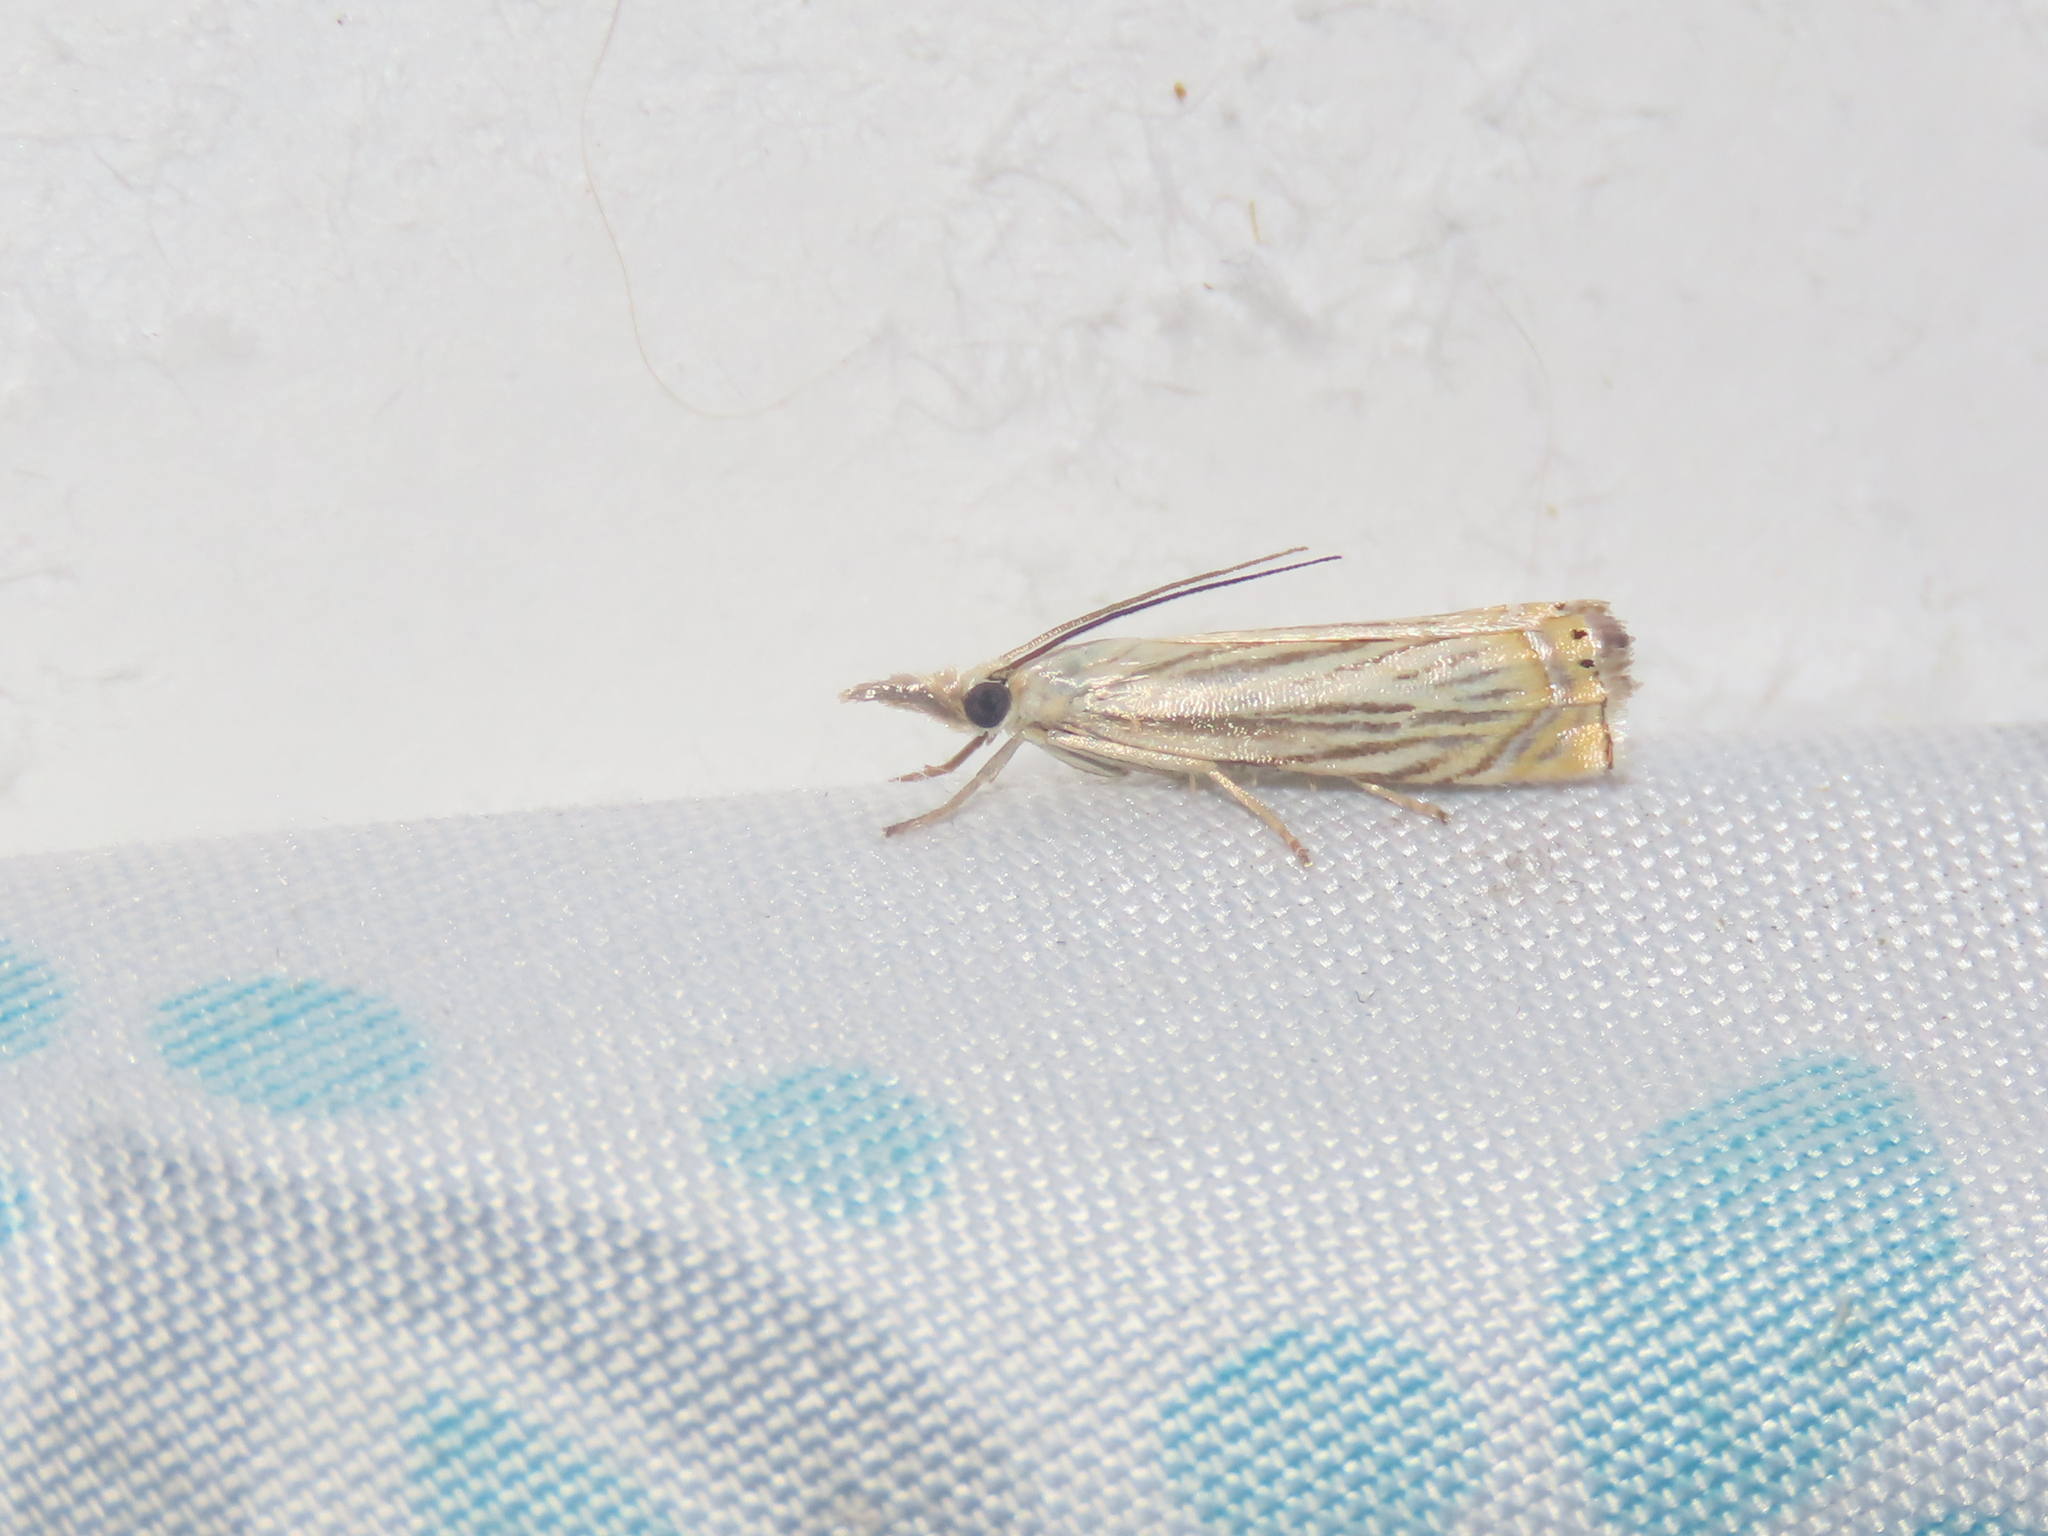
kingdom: Animalia
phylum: Arthropoda
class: Insecta
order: Lepidoptera
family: Crambidae
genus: Chrysoteuchia
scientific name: Chrysoteuchia topiarius
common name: Topiary grass-veneer
